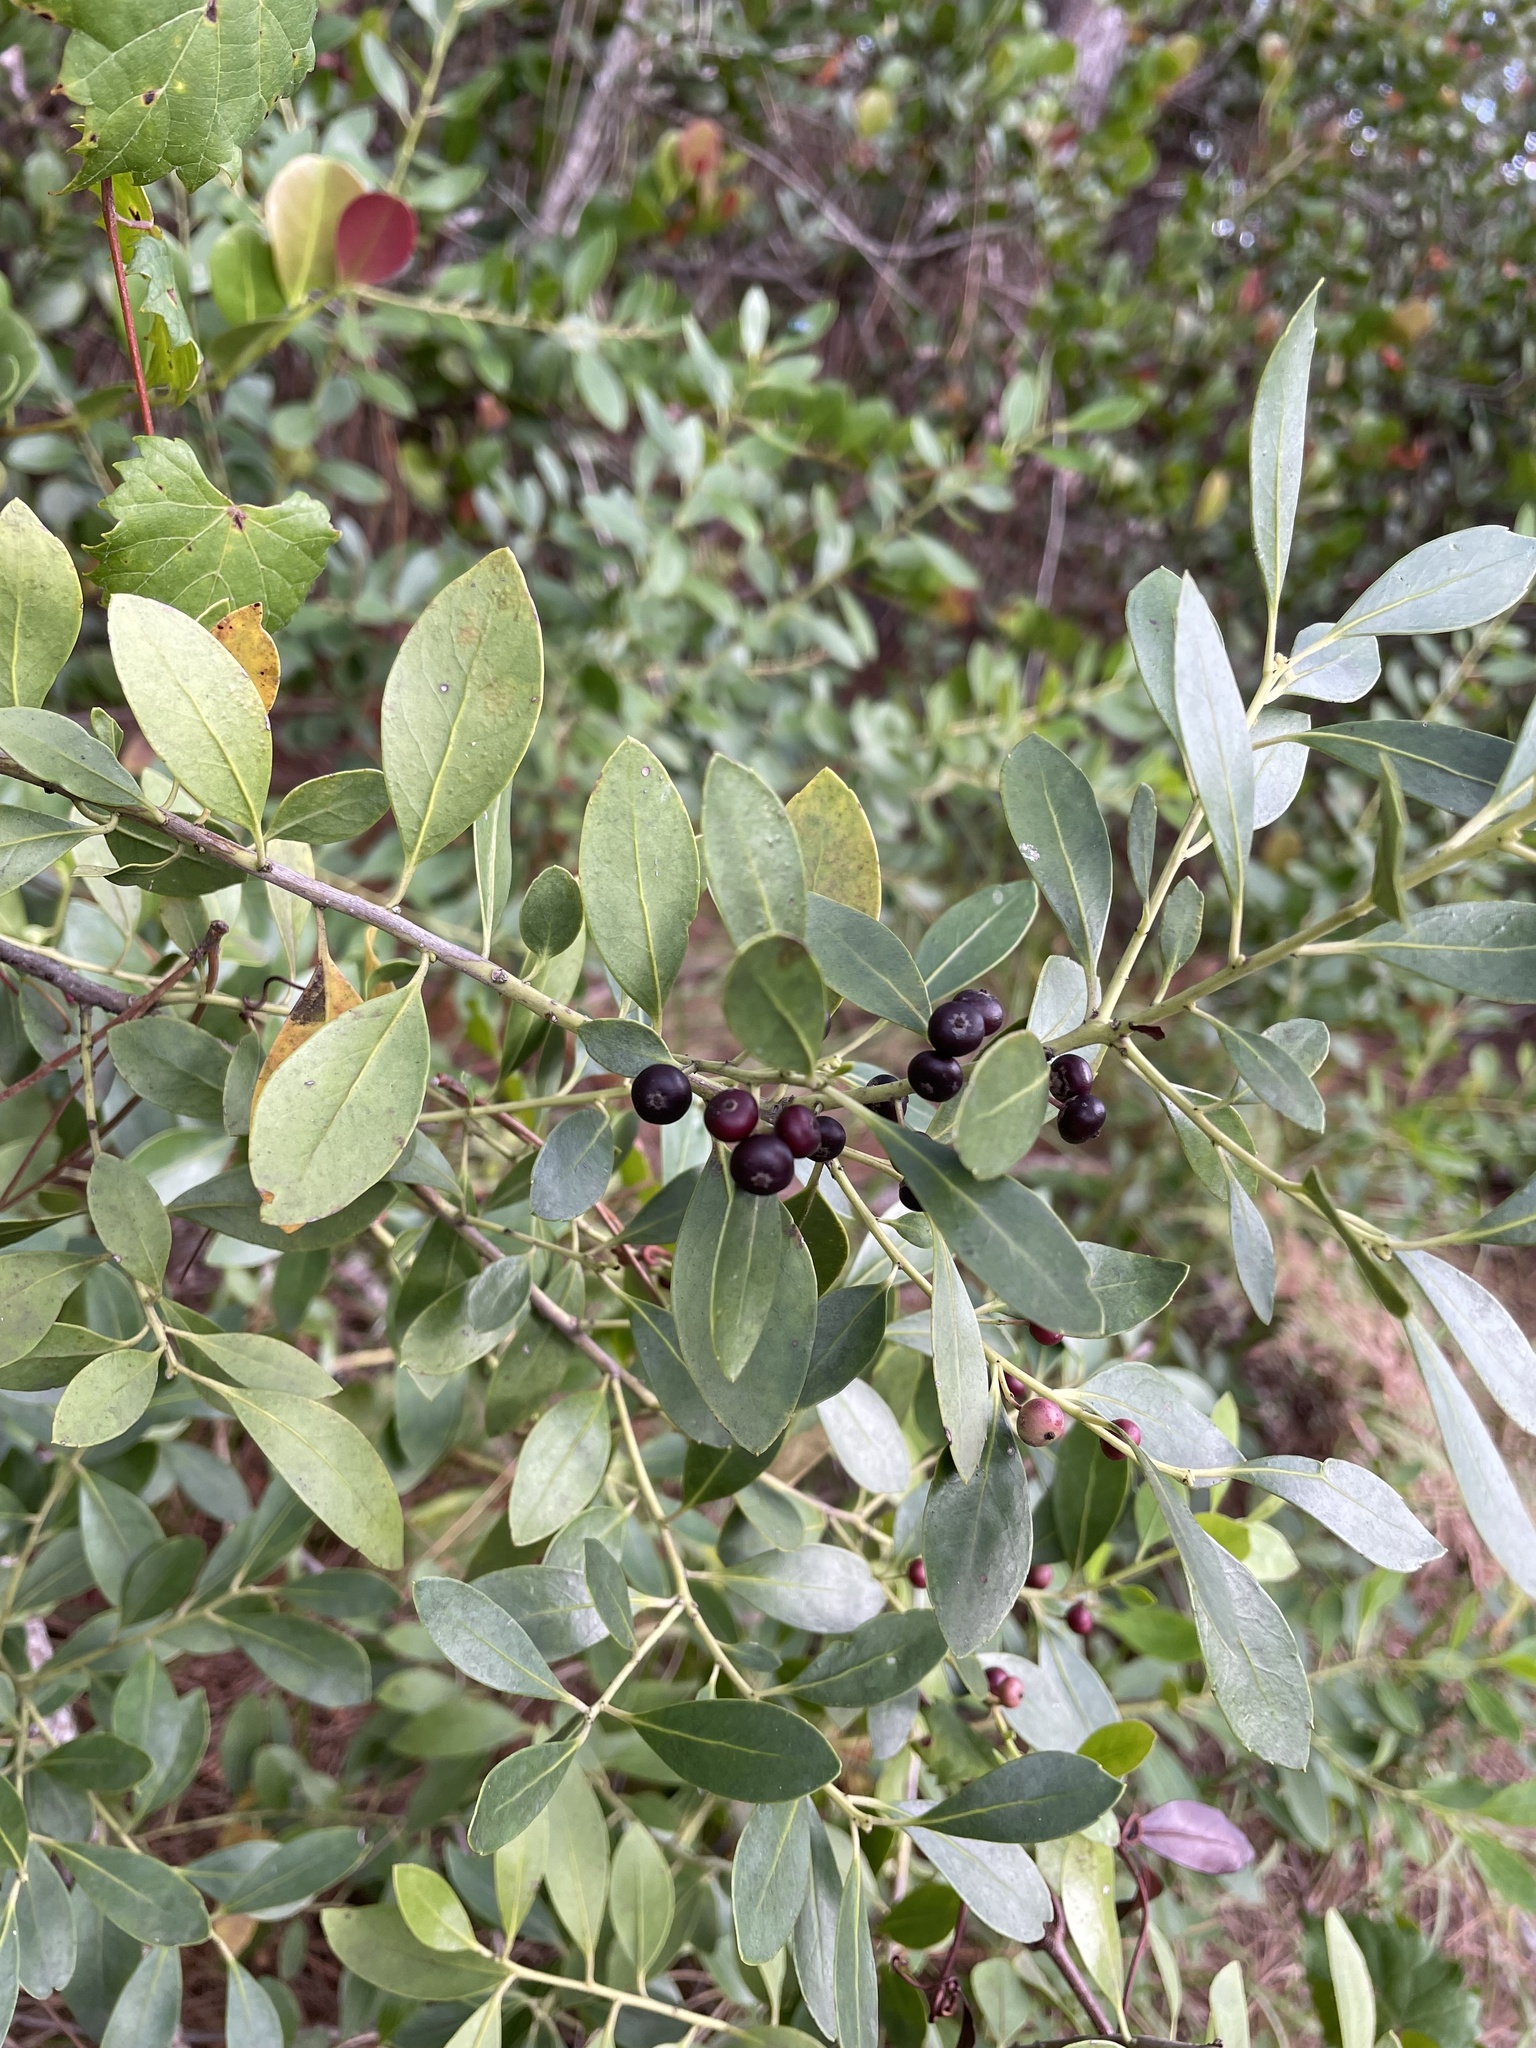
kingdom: Plantae
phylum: Tracheophyta
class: Magnoliopsida
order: Aquifoliales
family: Aquifoliaceae
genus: Ilex
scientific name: Ilex glabra
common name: Bitter gallberry
